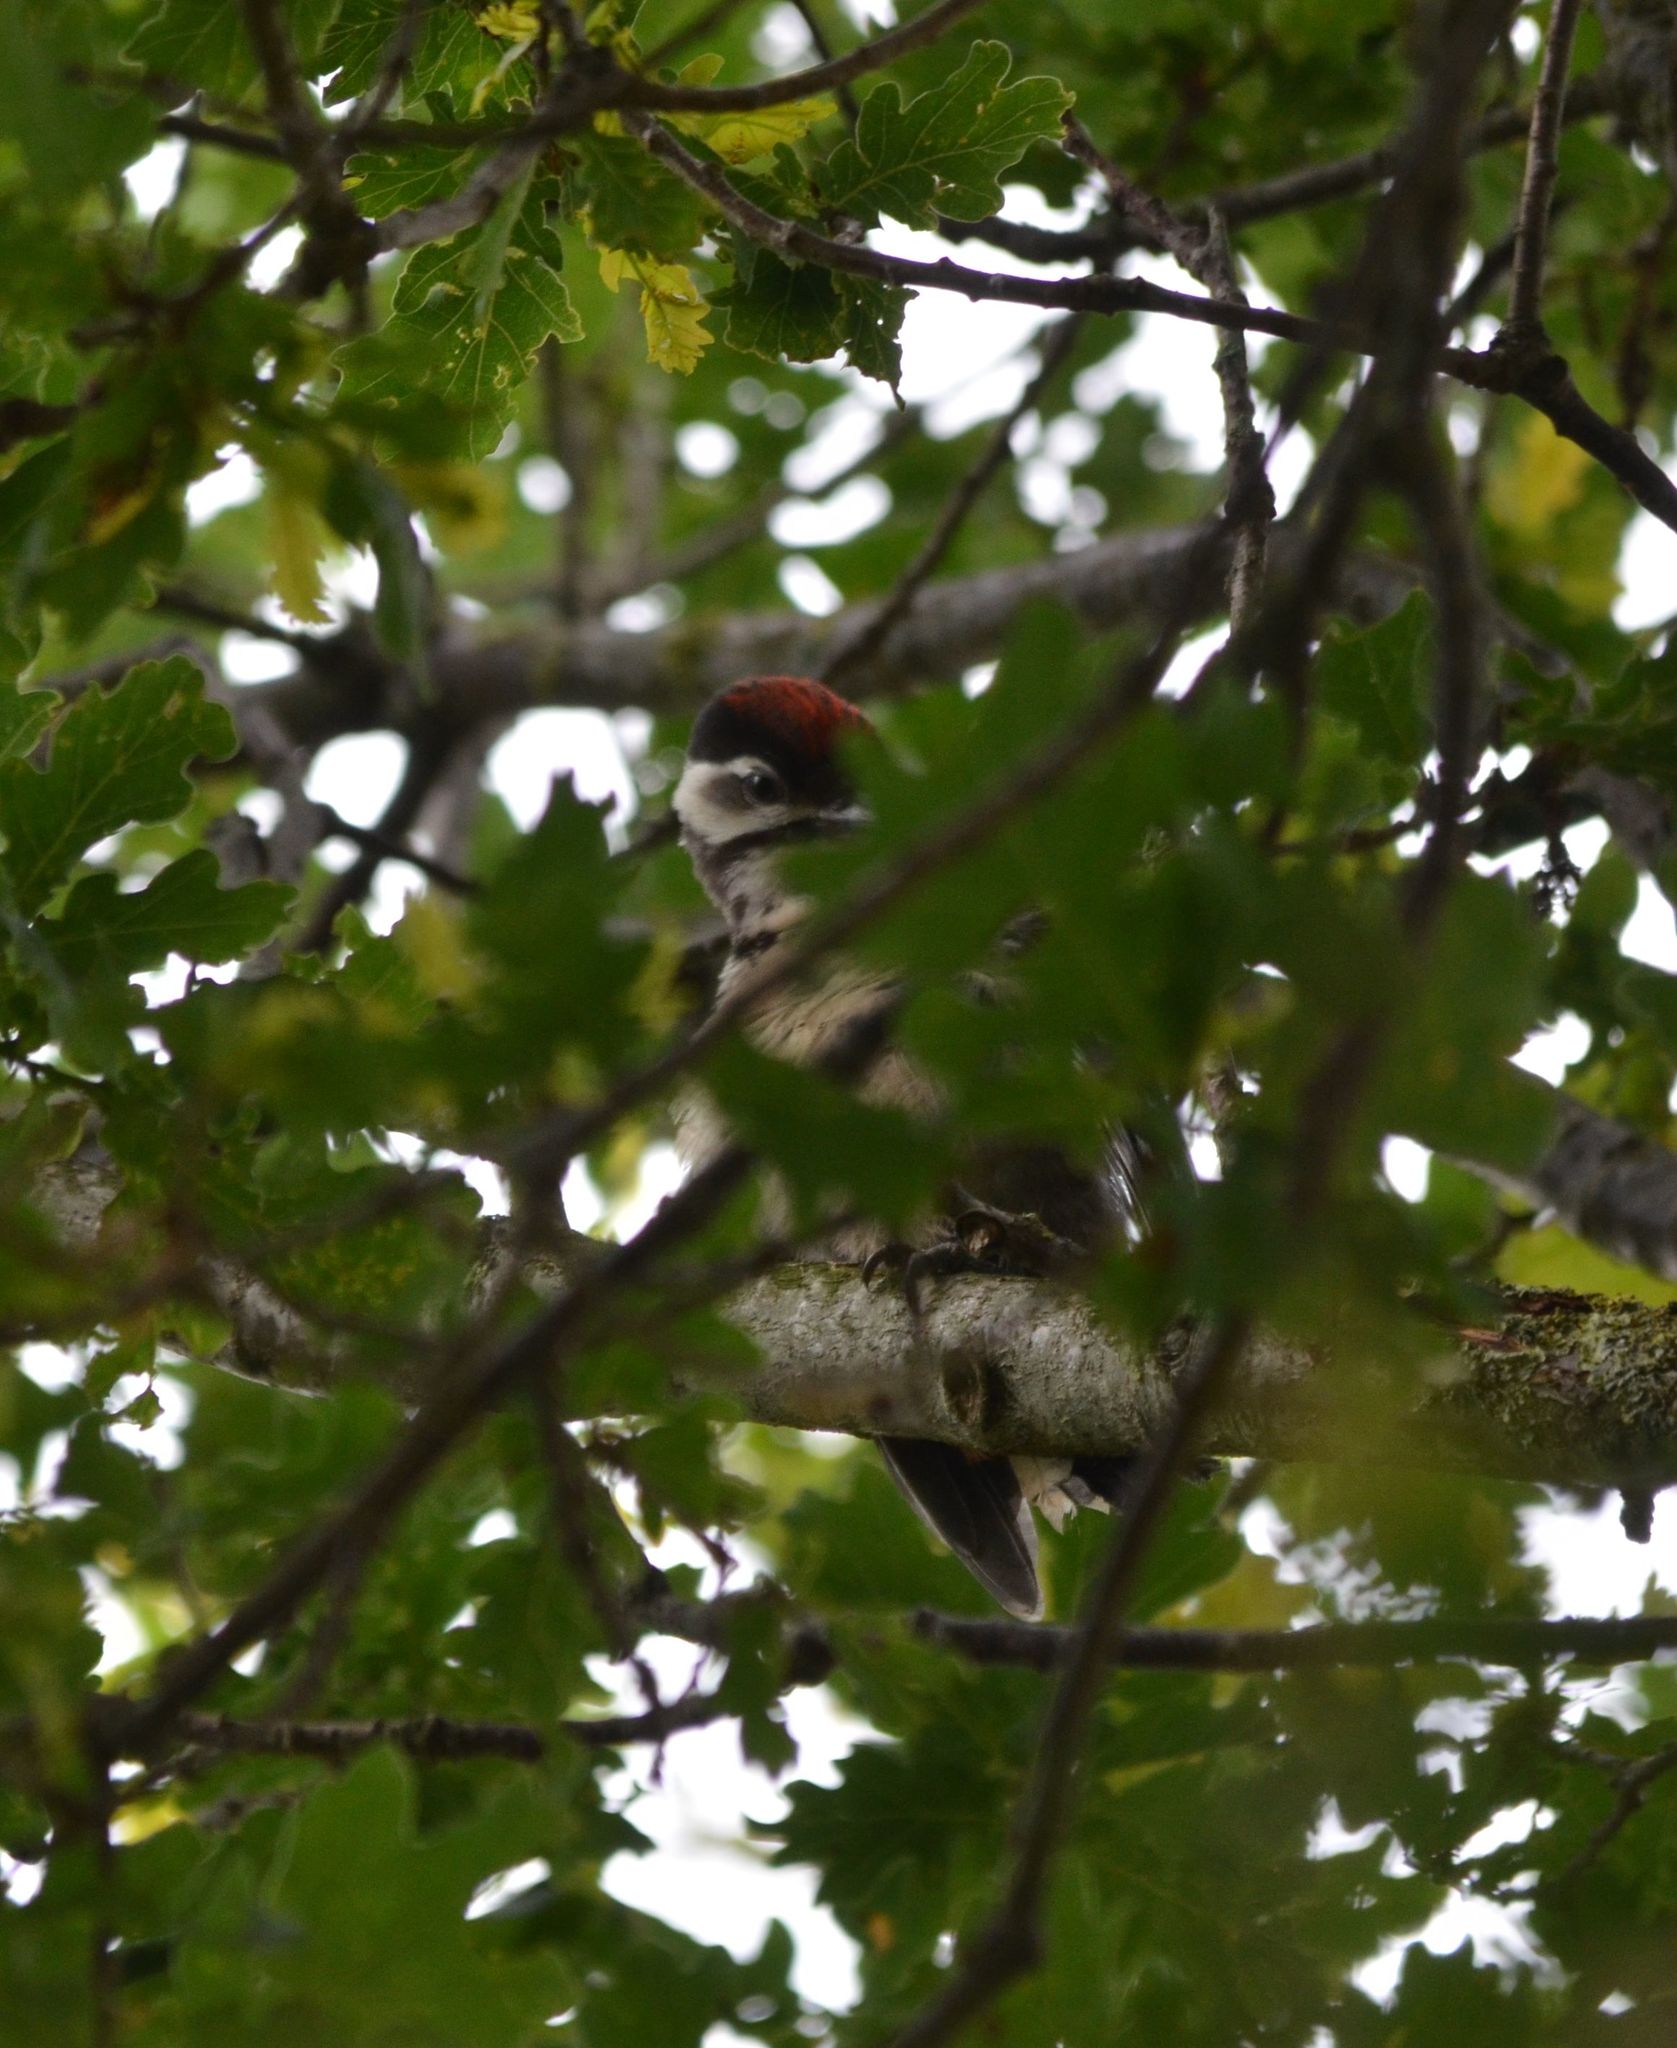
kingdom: Animalia
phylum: Chordata
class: Aves
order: Piciformes
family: Picidae
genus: Dendrocopos
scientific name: Dendrocopos major
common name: Great spotted woodpecker
